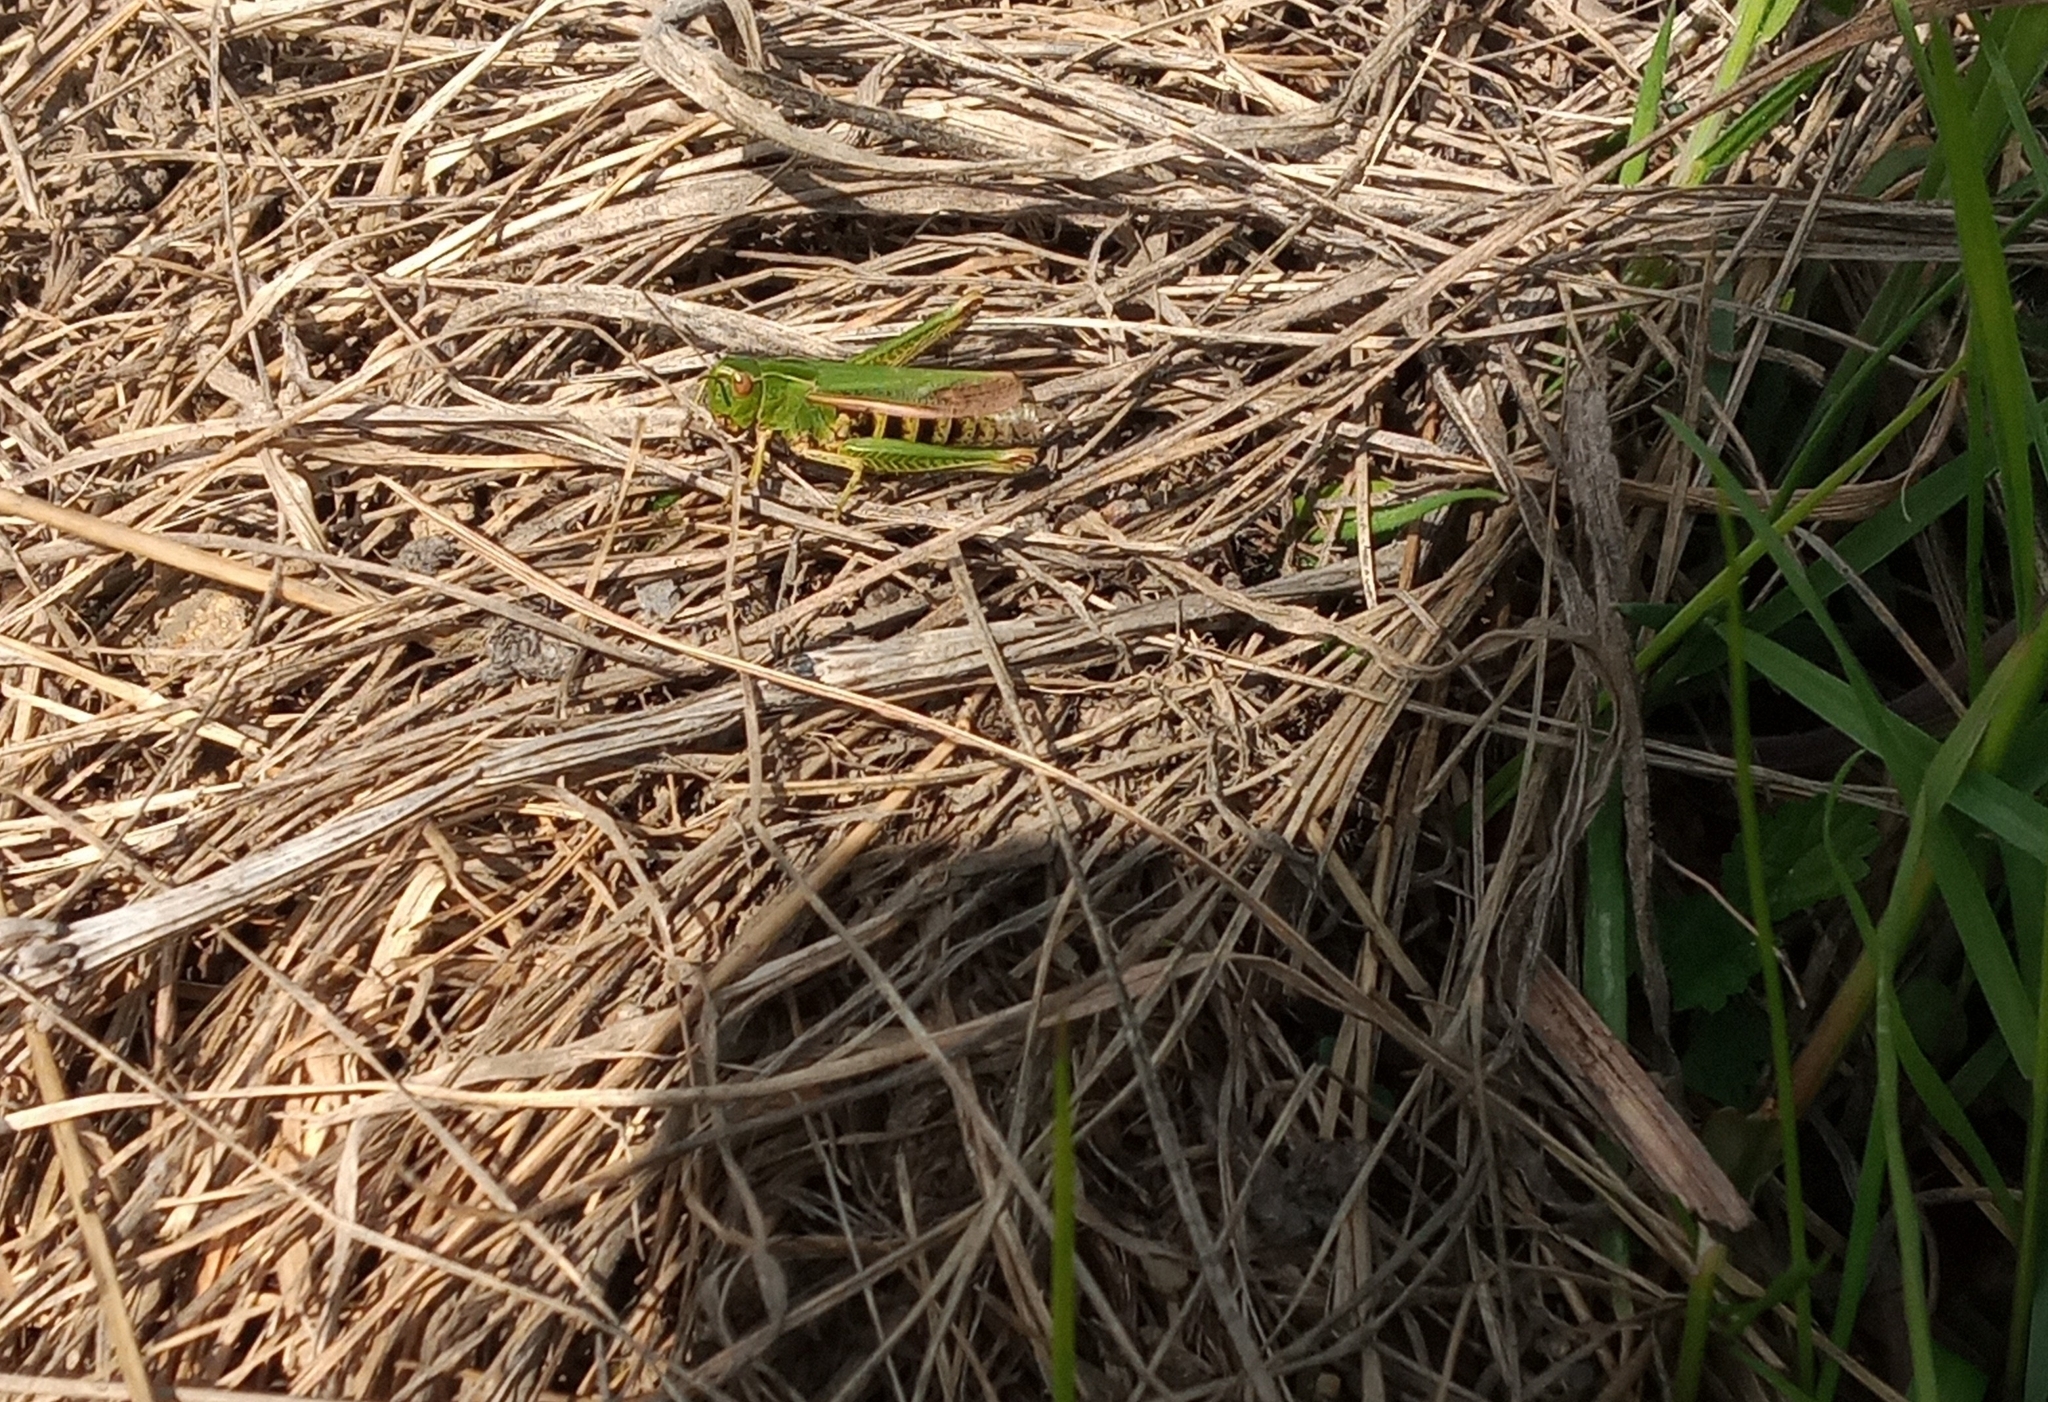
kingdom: Animalia
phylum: Arthropoda
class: Insecta
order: Orthoptera
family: Acrididae
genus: Omocestus
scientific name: Omocestus viridulus
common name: Common green grasshopper
